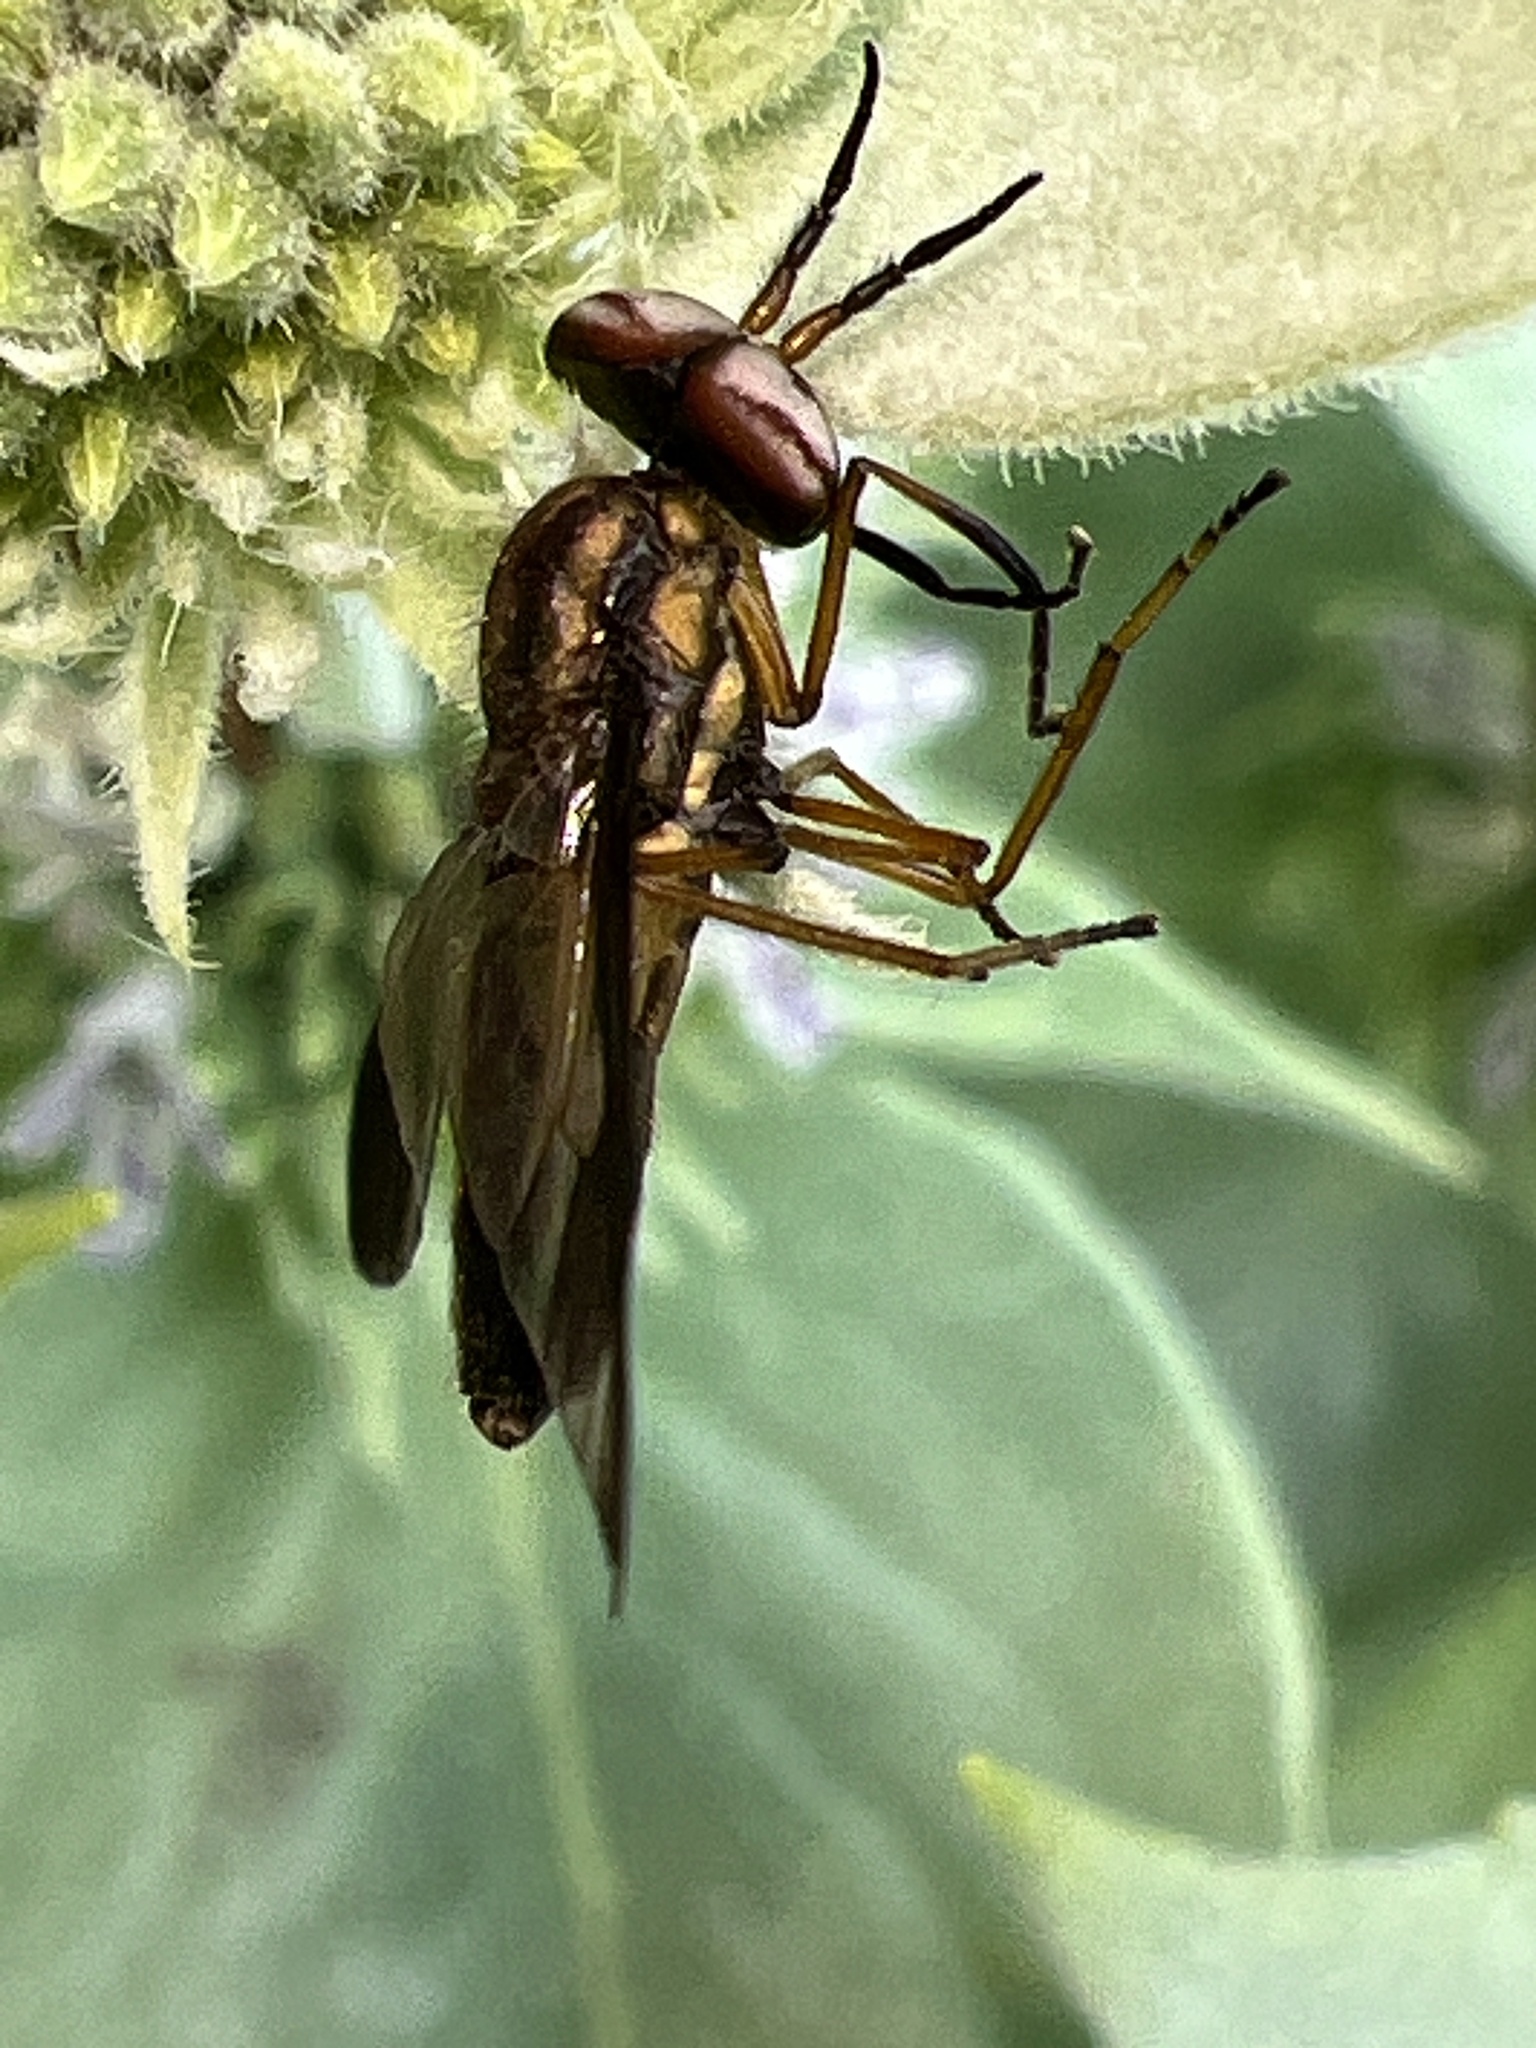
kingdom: Animalia
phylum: Arthropoda
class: Insecta
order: Diptera
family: Tabanidae
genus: Chrysops
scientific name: Chrysops macquarti
